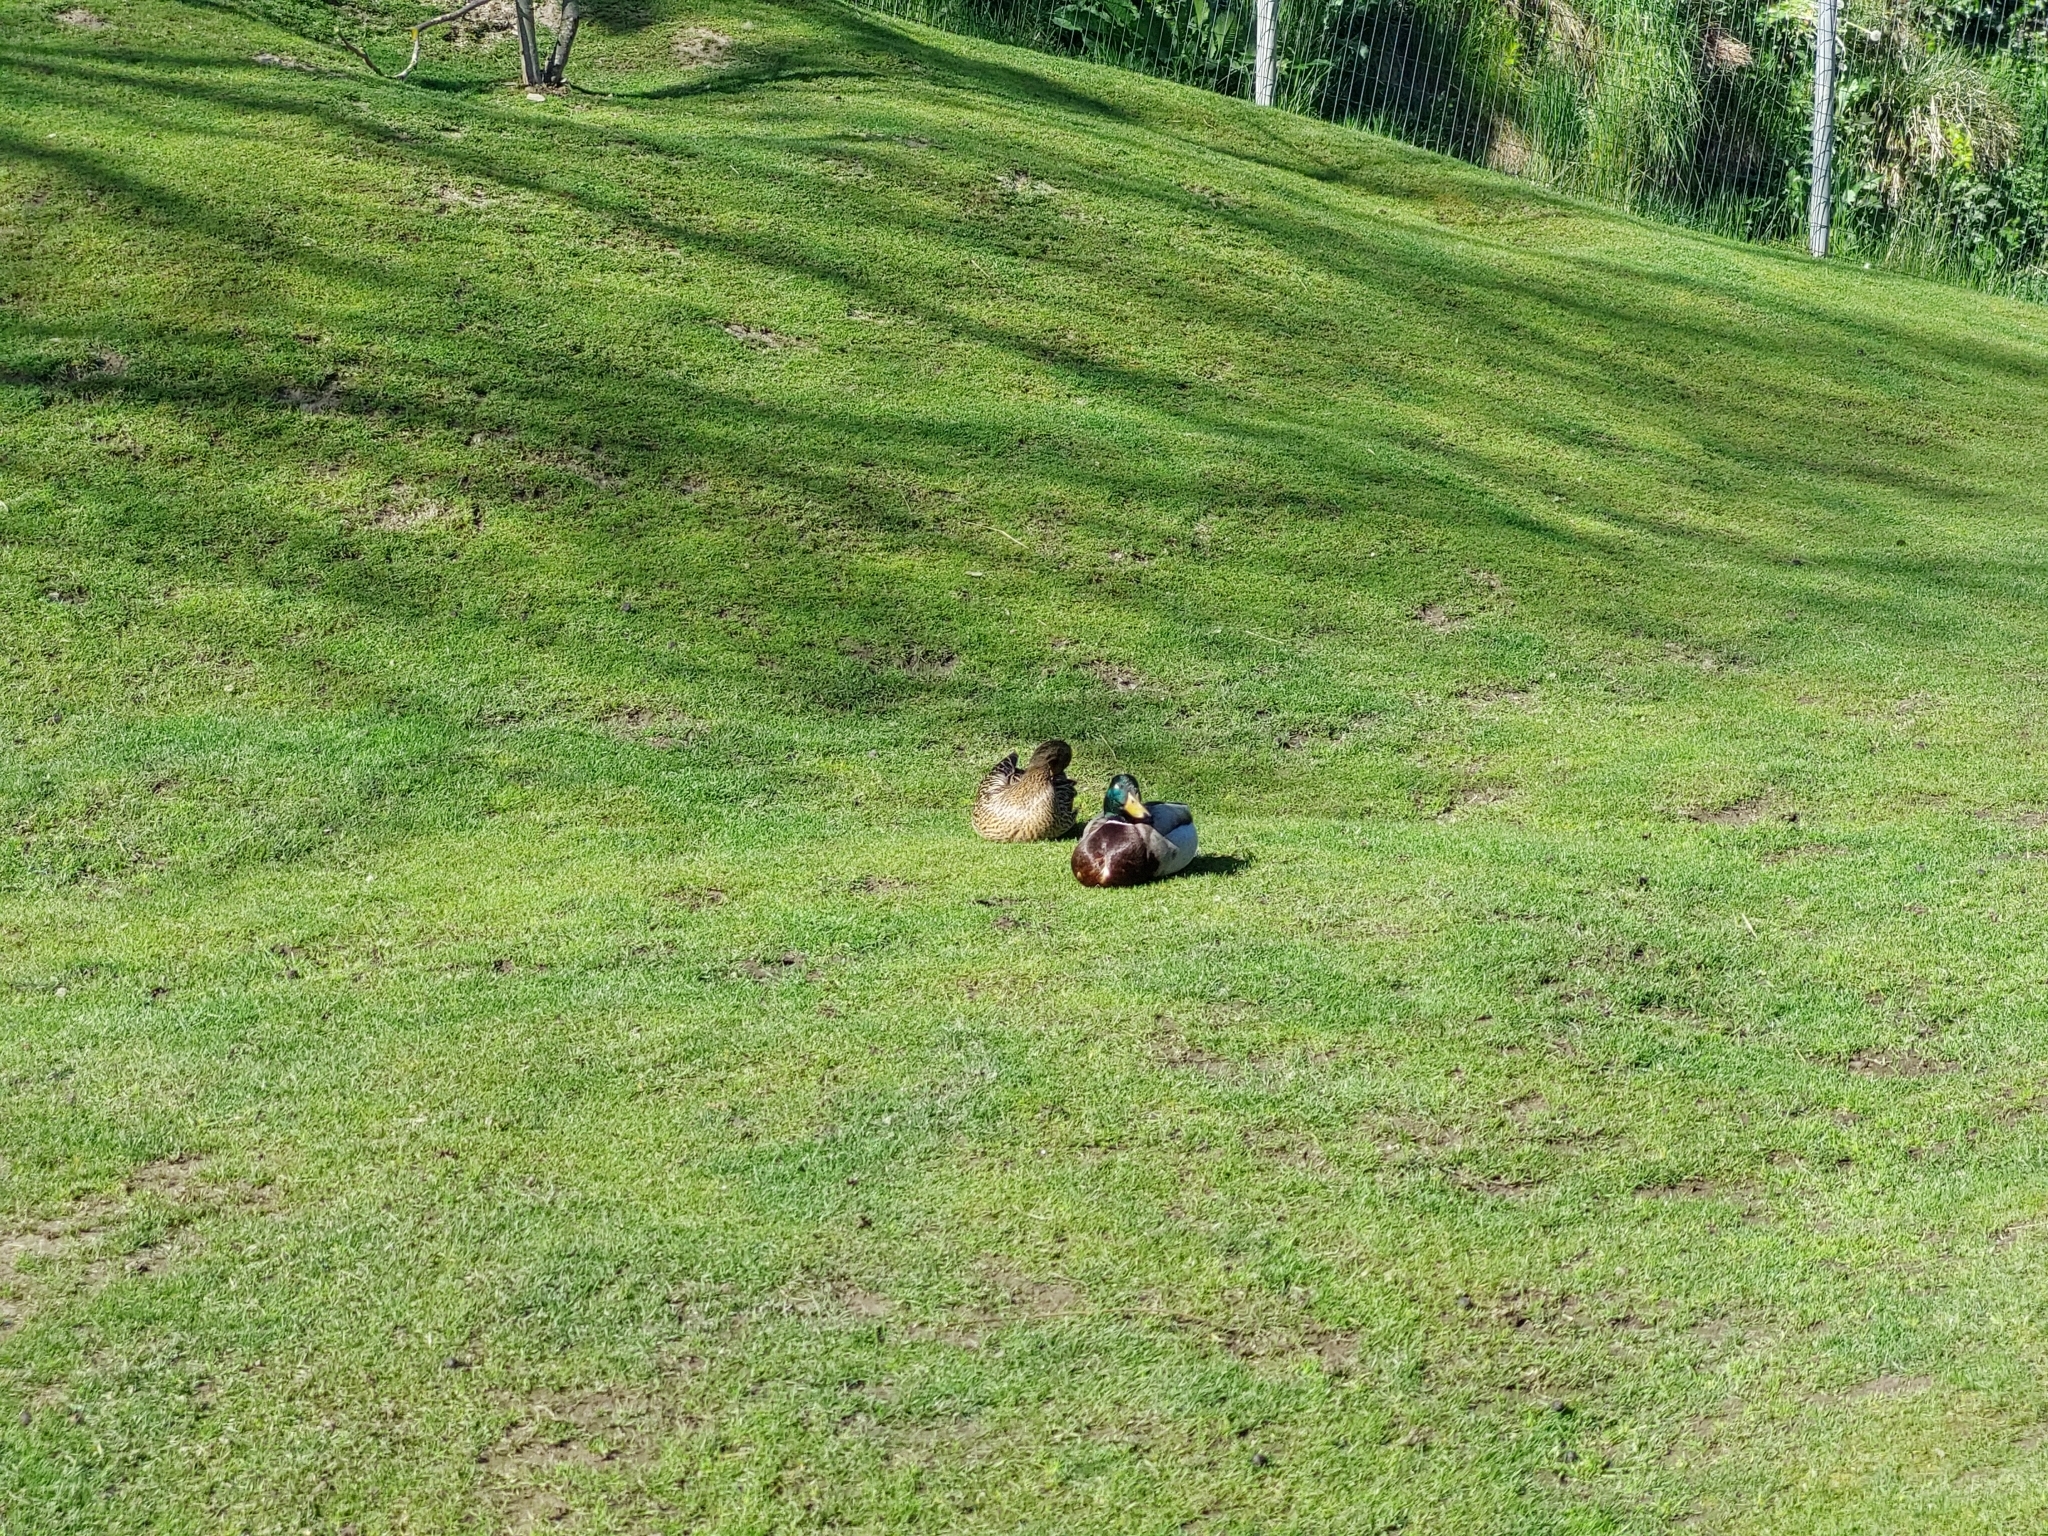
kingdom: Animalia
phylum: Chordata
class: Aves
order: Anseriformes
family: Anatidae
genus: Anas
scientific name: Anas platyrhynchos
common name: Mallard
